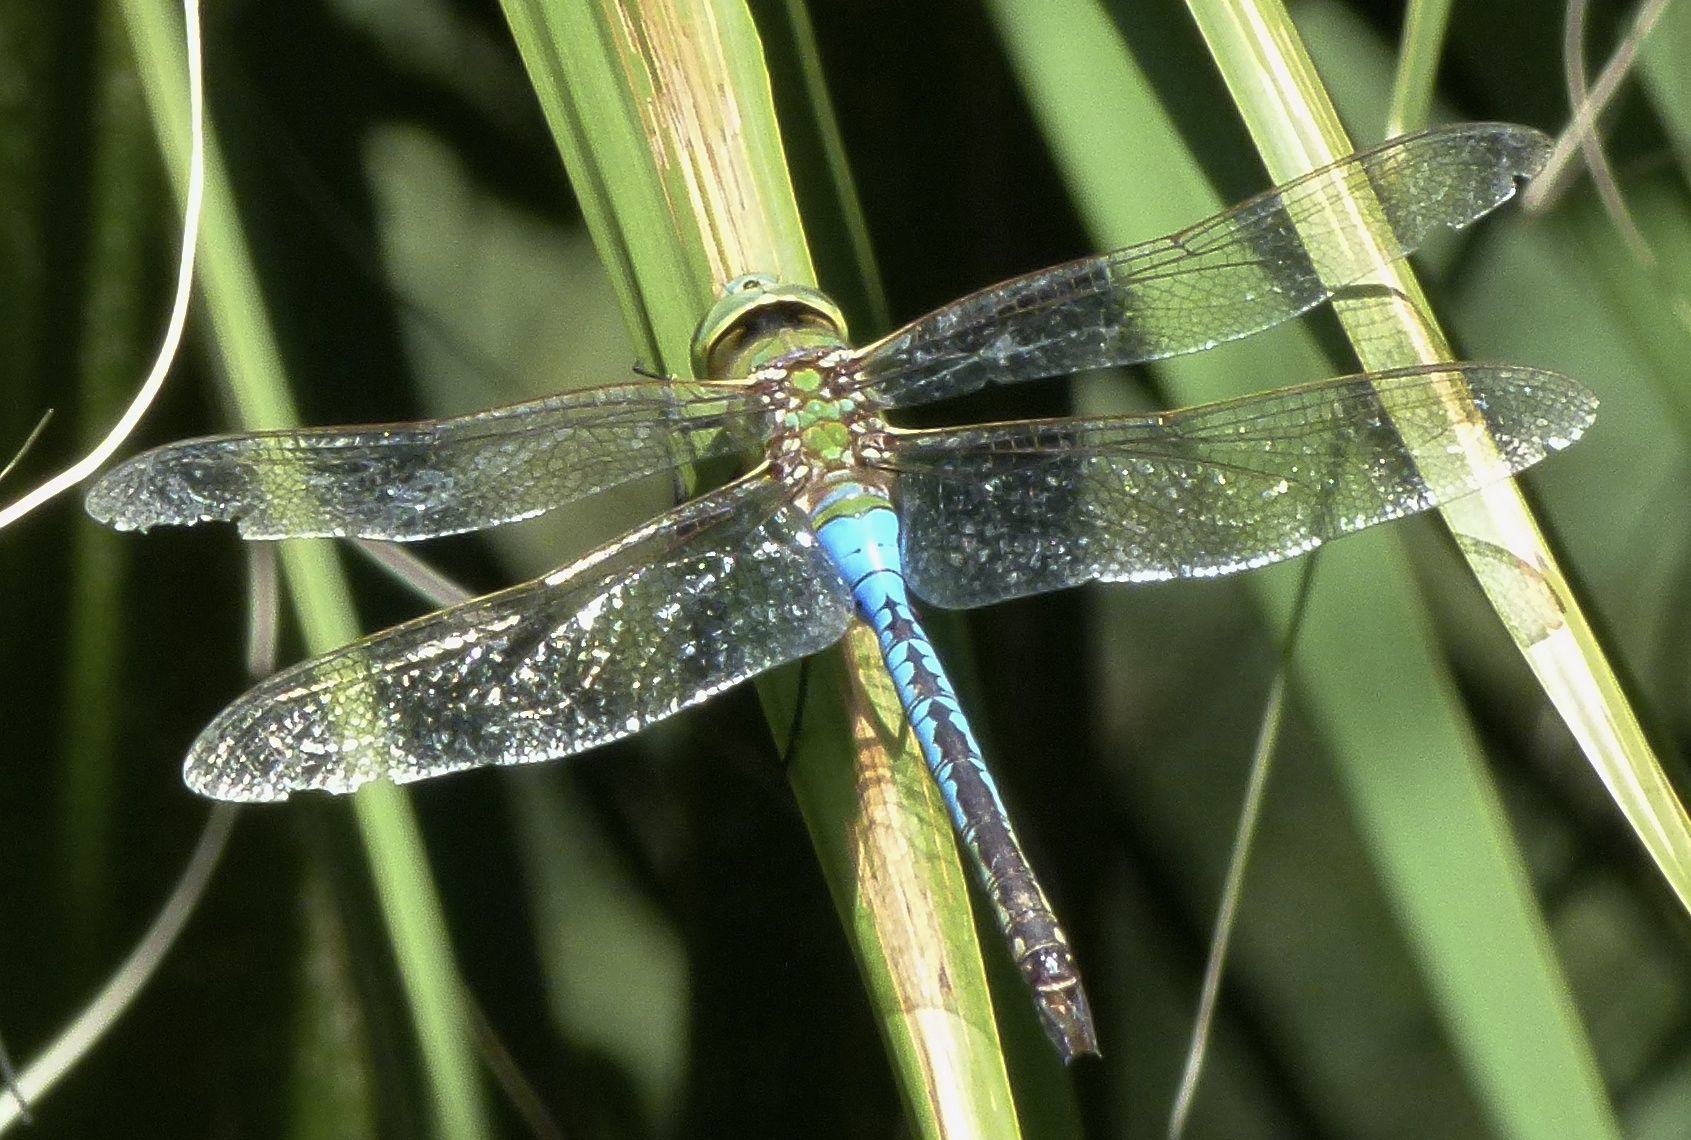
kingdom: Animalia
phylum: Arthropoda
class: Insecta
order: Odonata
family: Aeshnidae
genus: Anax
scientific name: Anax junius
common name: Common green darner
